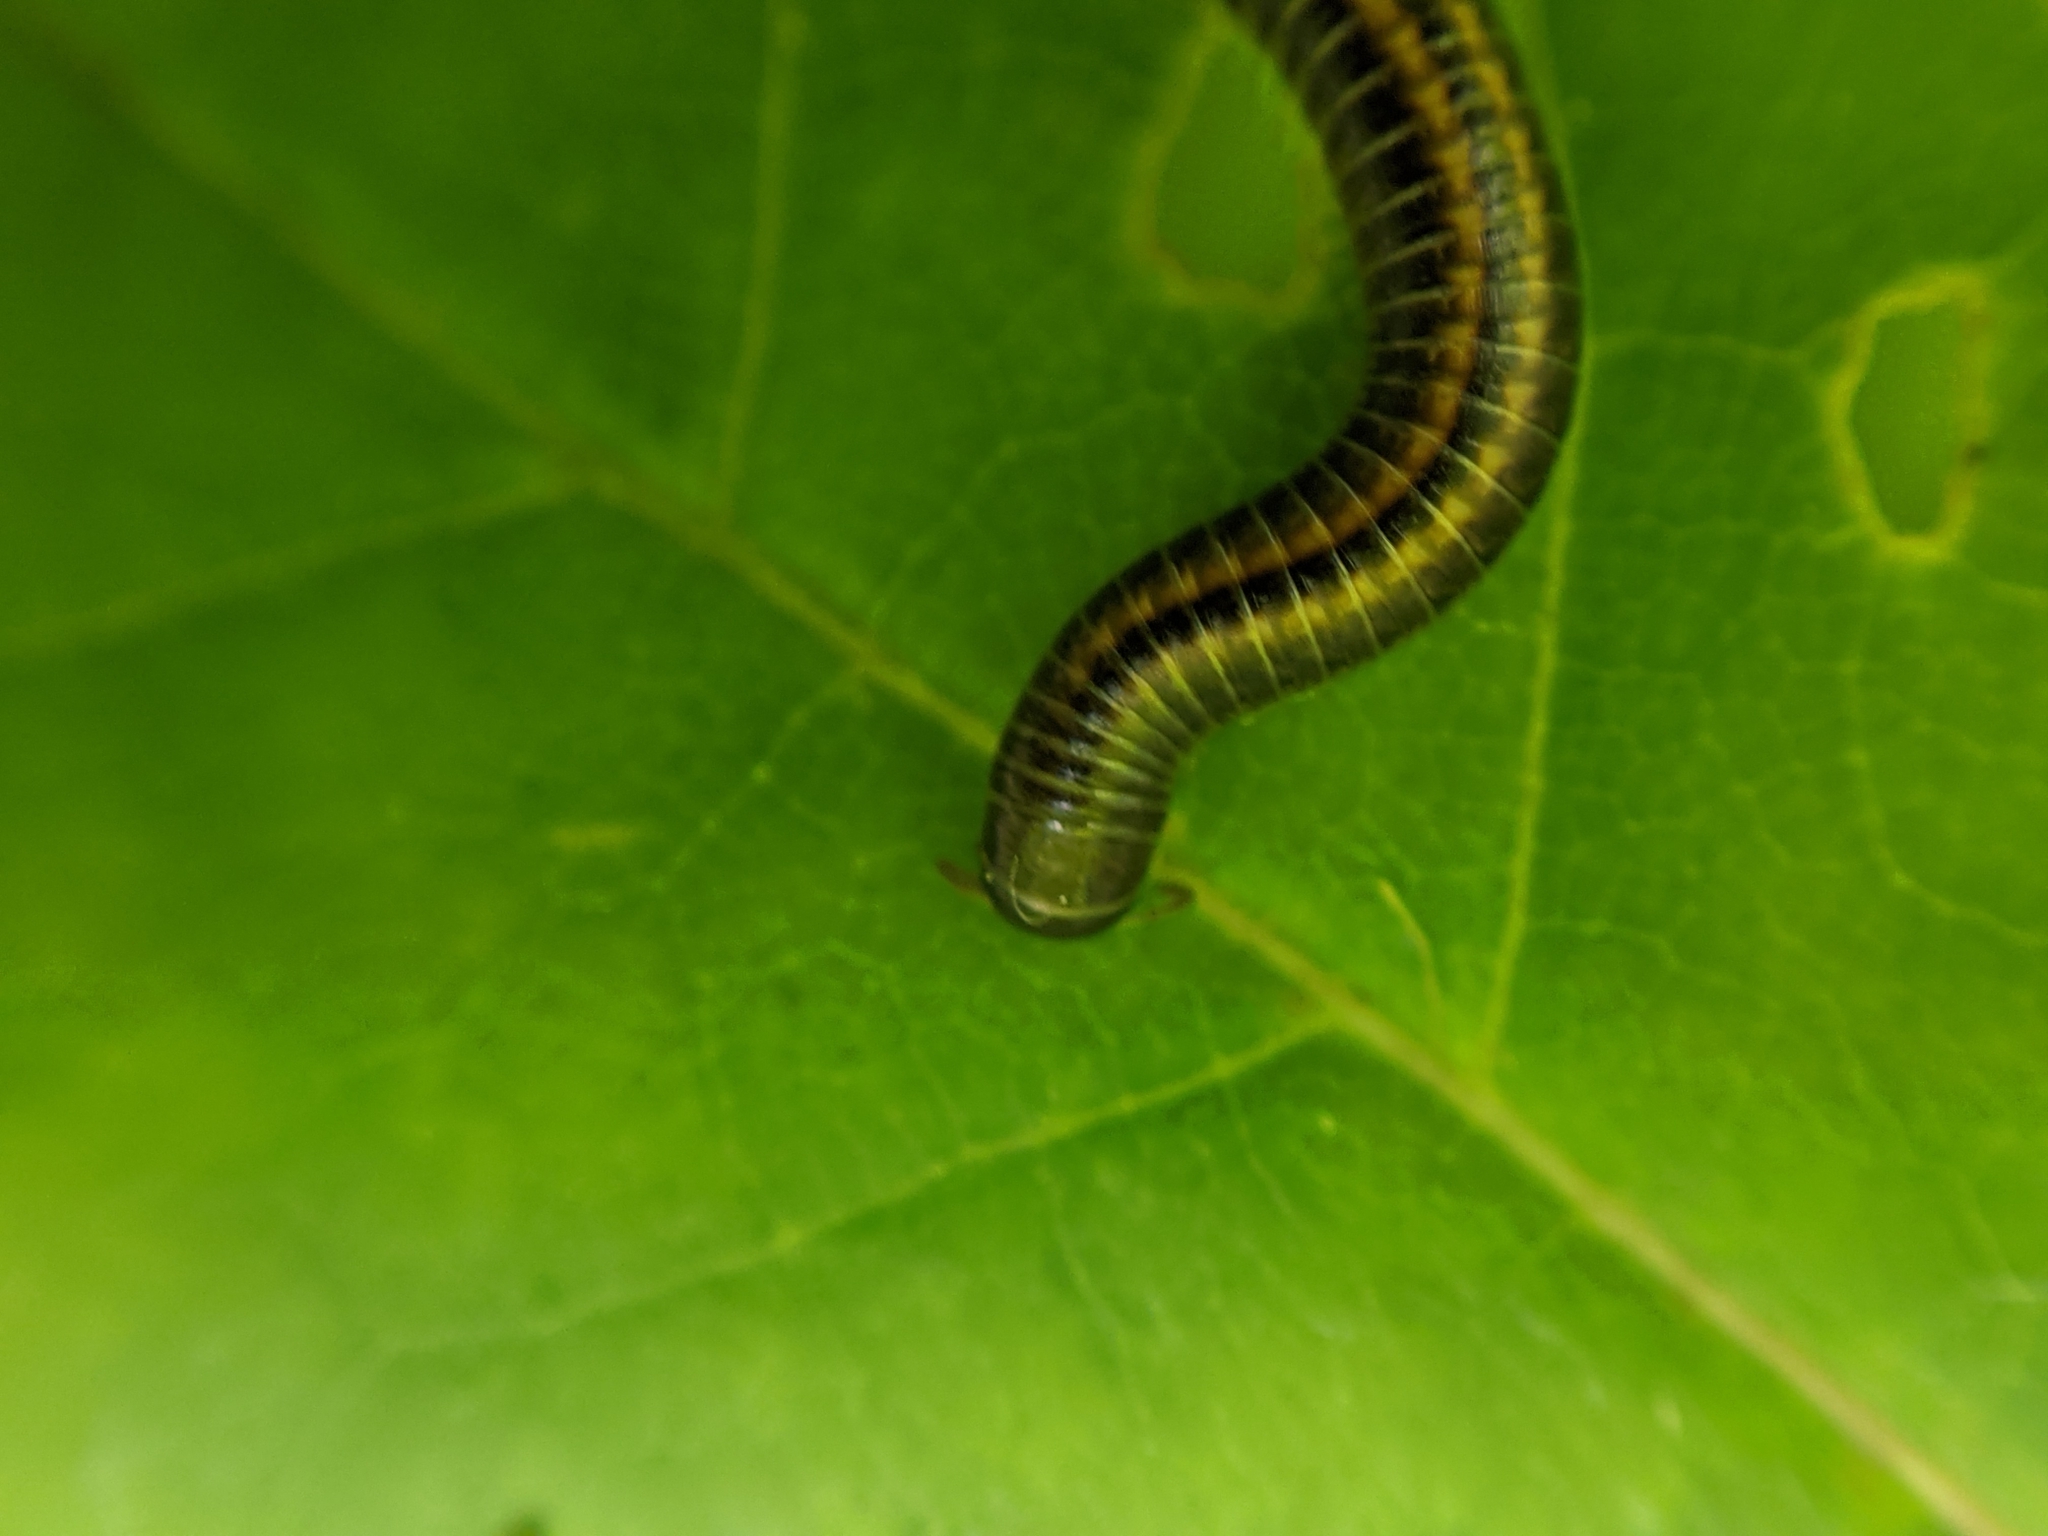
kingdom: Animalia
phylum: Arthropoda
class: Diplopoda
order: Julida
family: Julidae
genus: Ommatoiulus
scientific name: Ommatoiulus sabulosus
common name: Striped millipede
